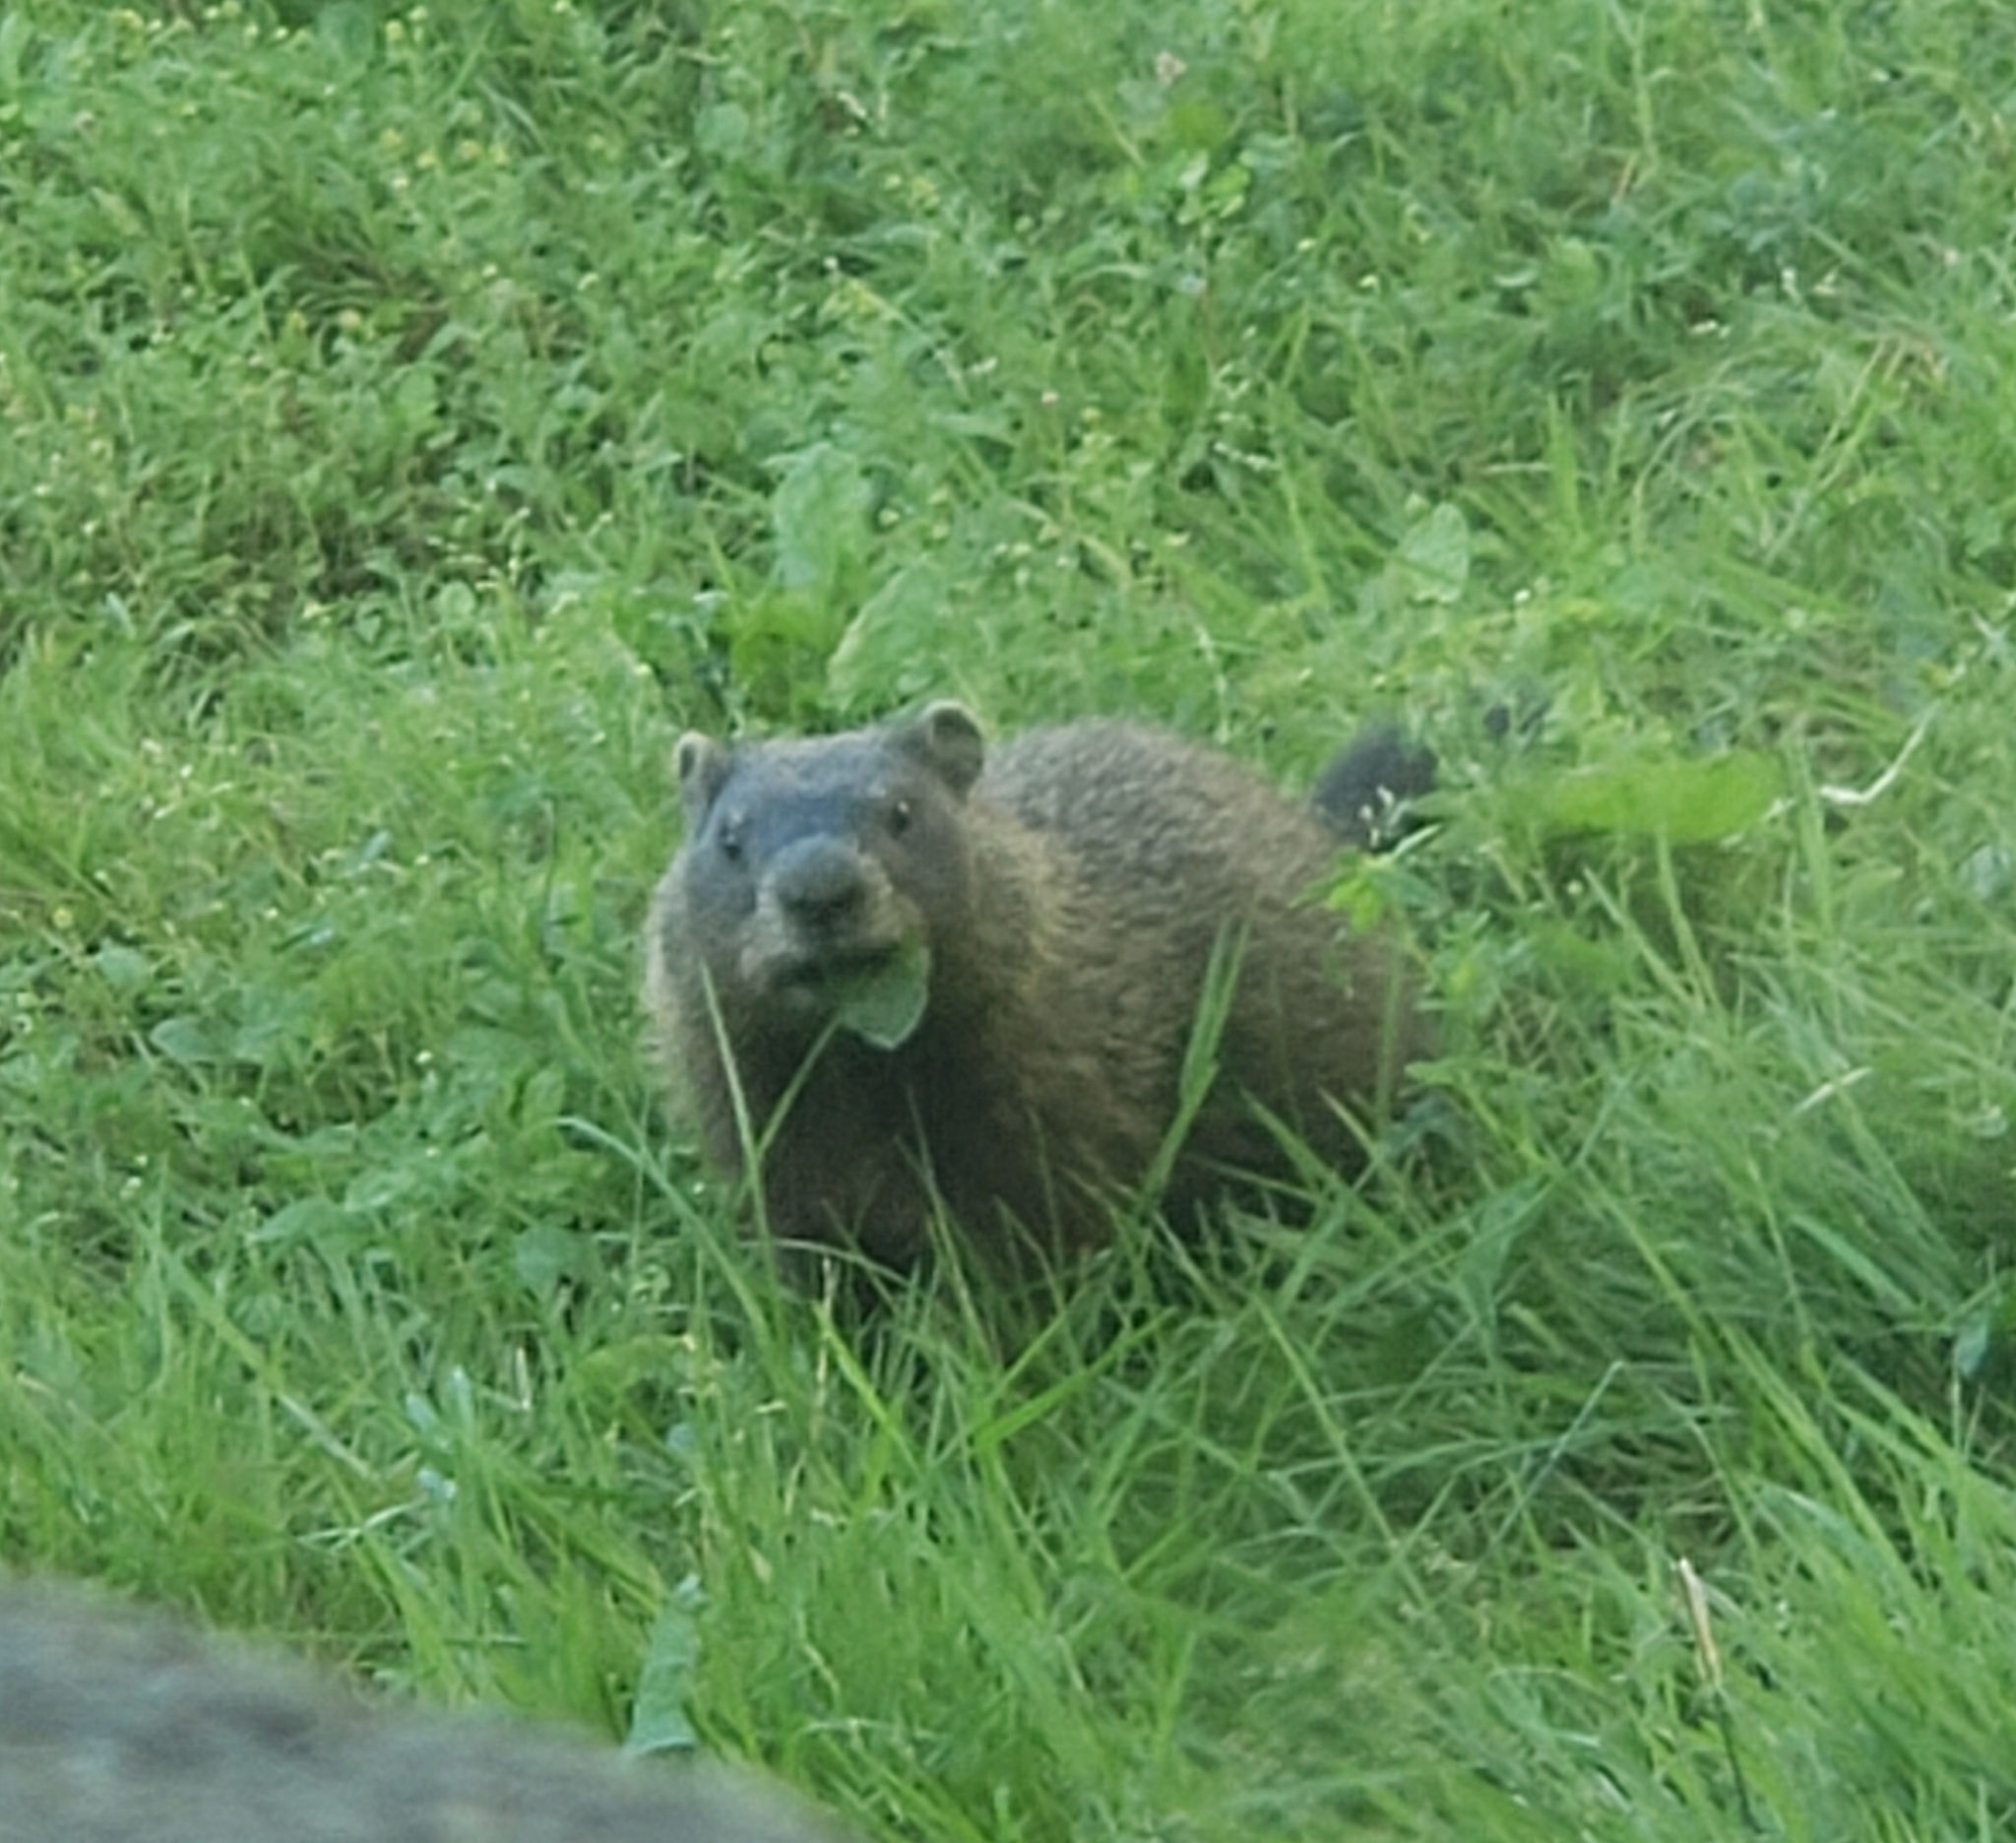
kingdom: Animalia
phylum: Chordata
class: Mammalia
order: Rodentia
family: Sciuridae
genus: Marmota
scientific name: Marmota monax
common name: Groundhog
